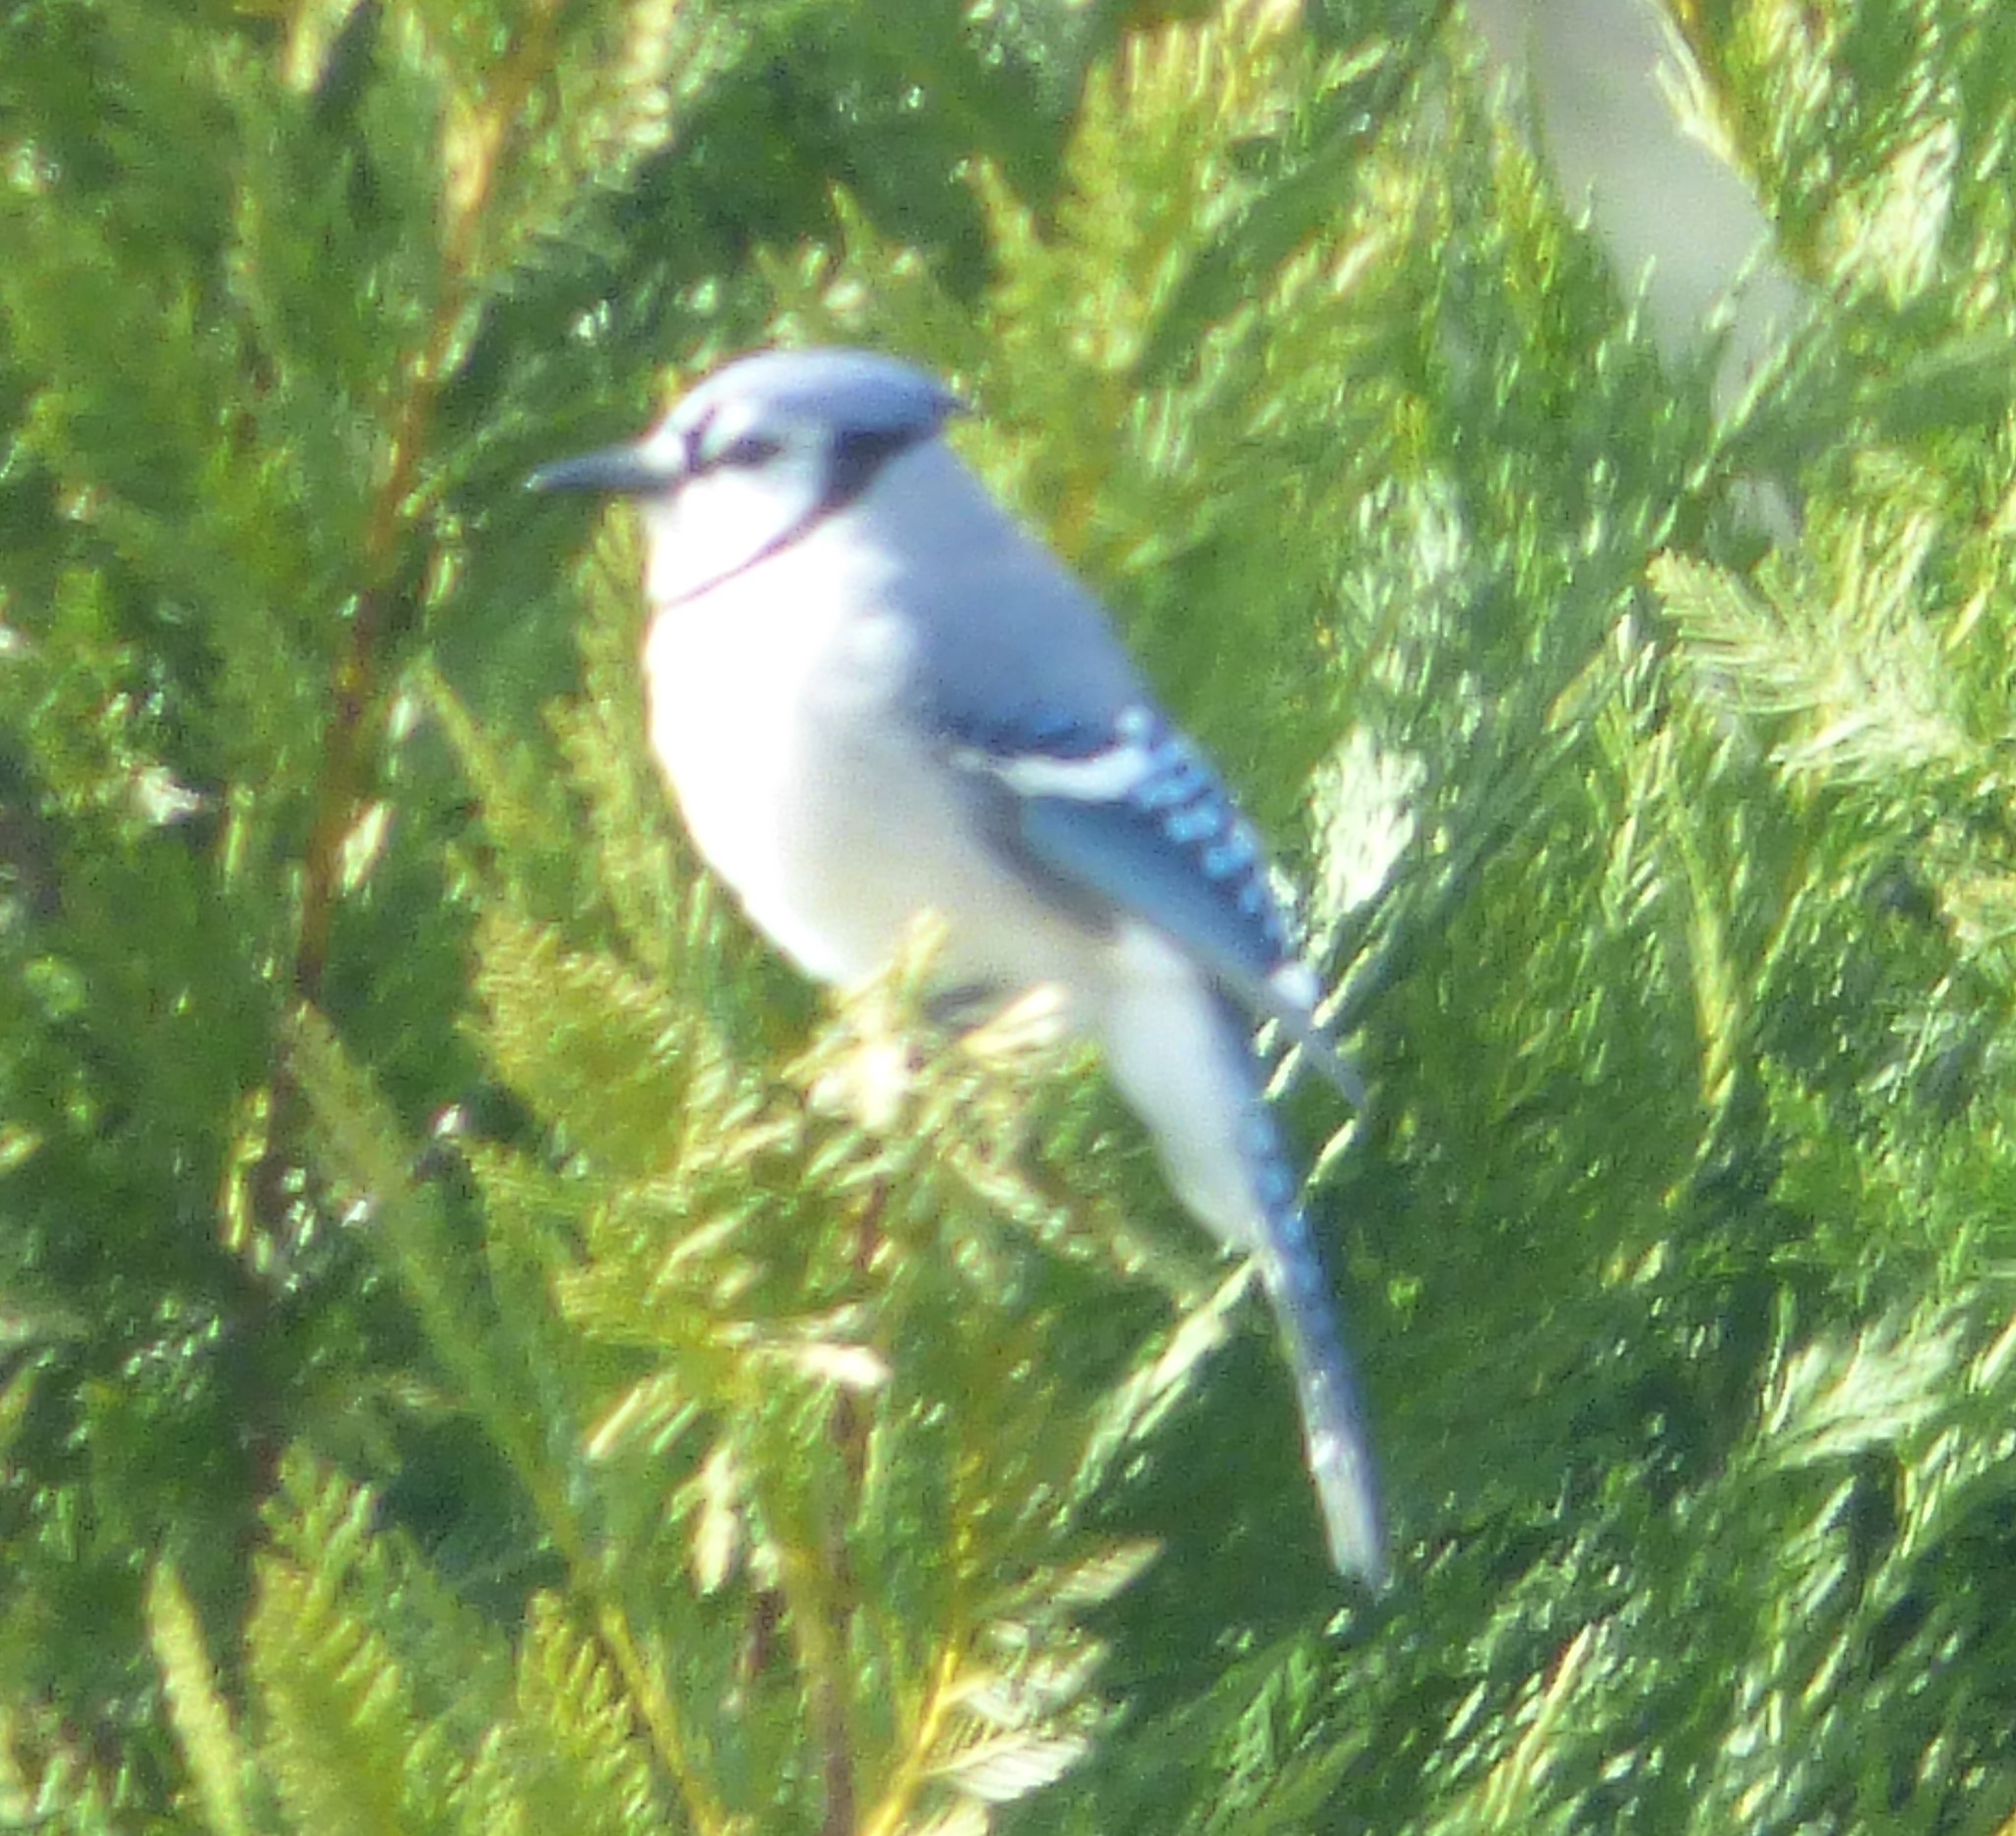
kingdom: Animalia
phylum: Chordata
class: Aves
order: Passeriformes
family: Corvidae
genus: Cyanocitta
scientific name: Cyanocitta cristata
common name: Blue jay
